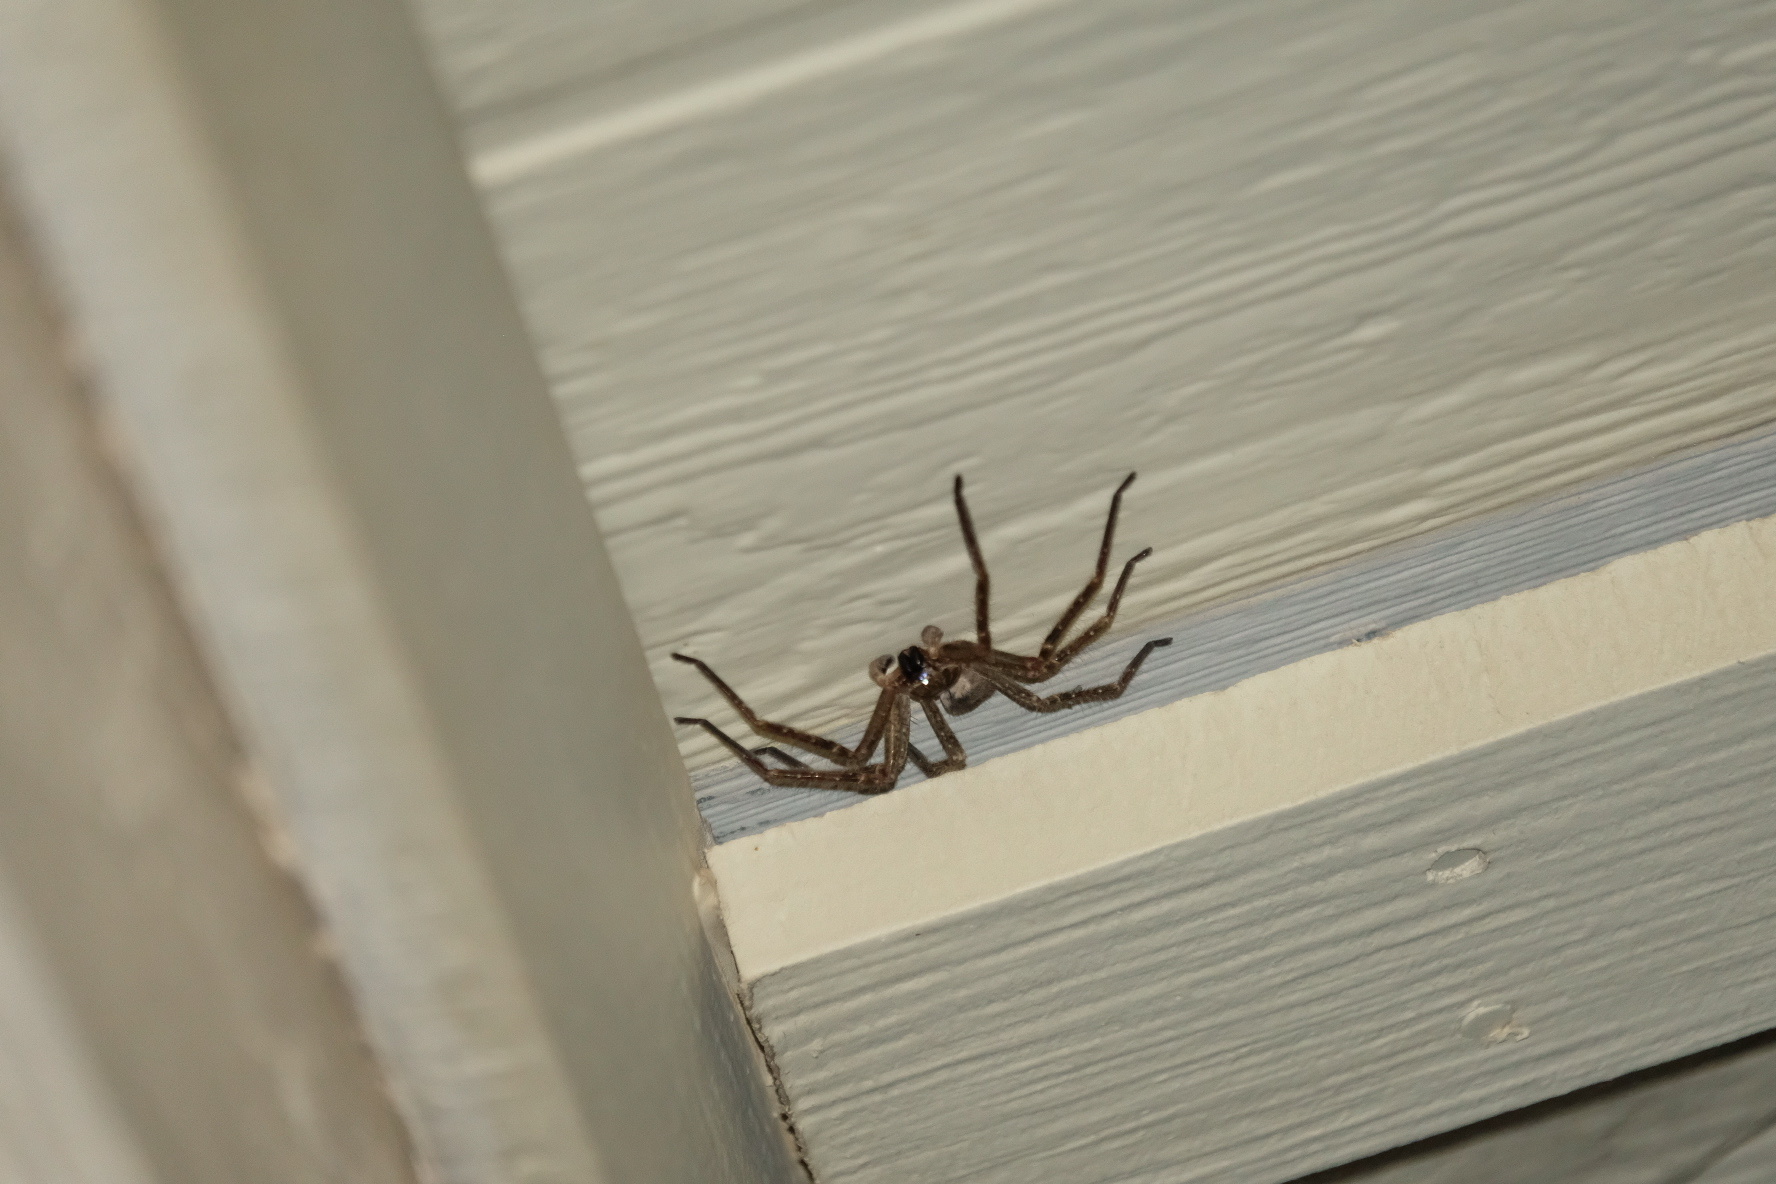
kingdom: Animalia
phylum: Arthropoda
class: Arachnida
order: Araneae
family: Sparassidae
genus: Olios
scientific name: Olios giganteus
